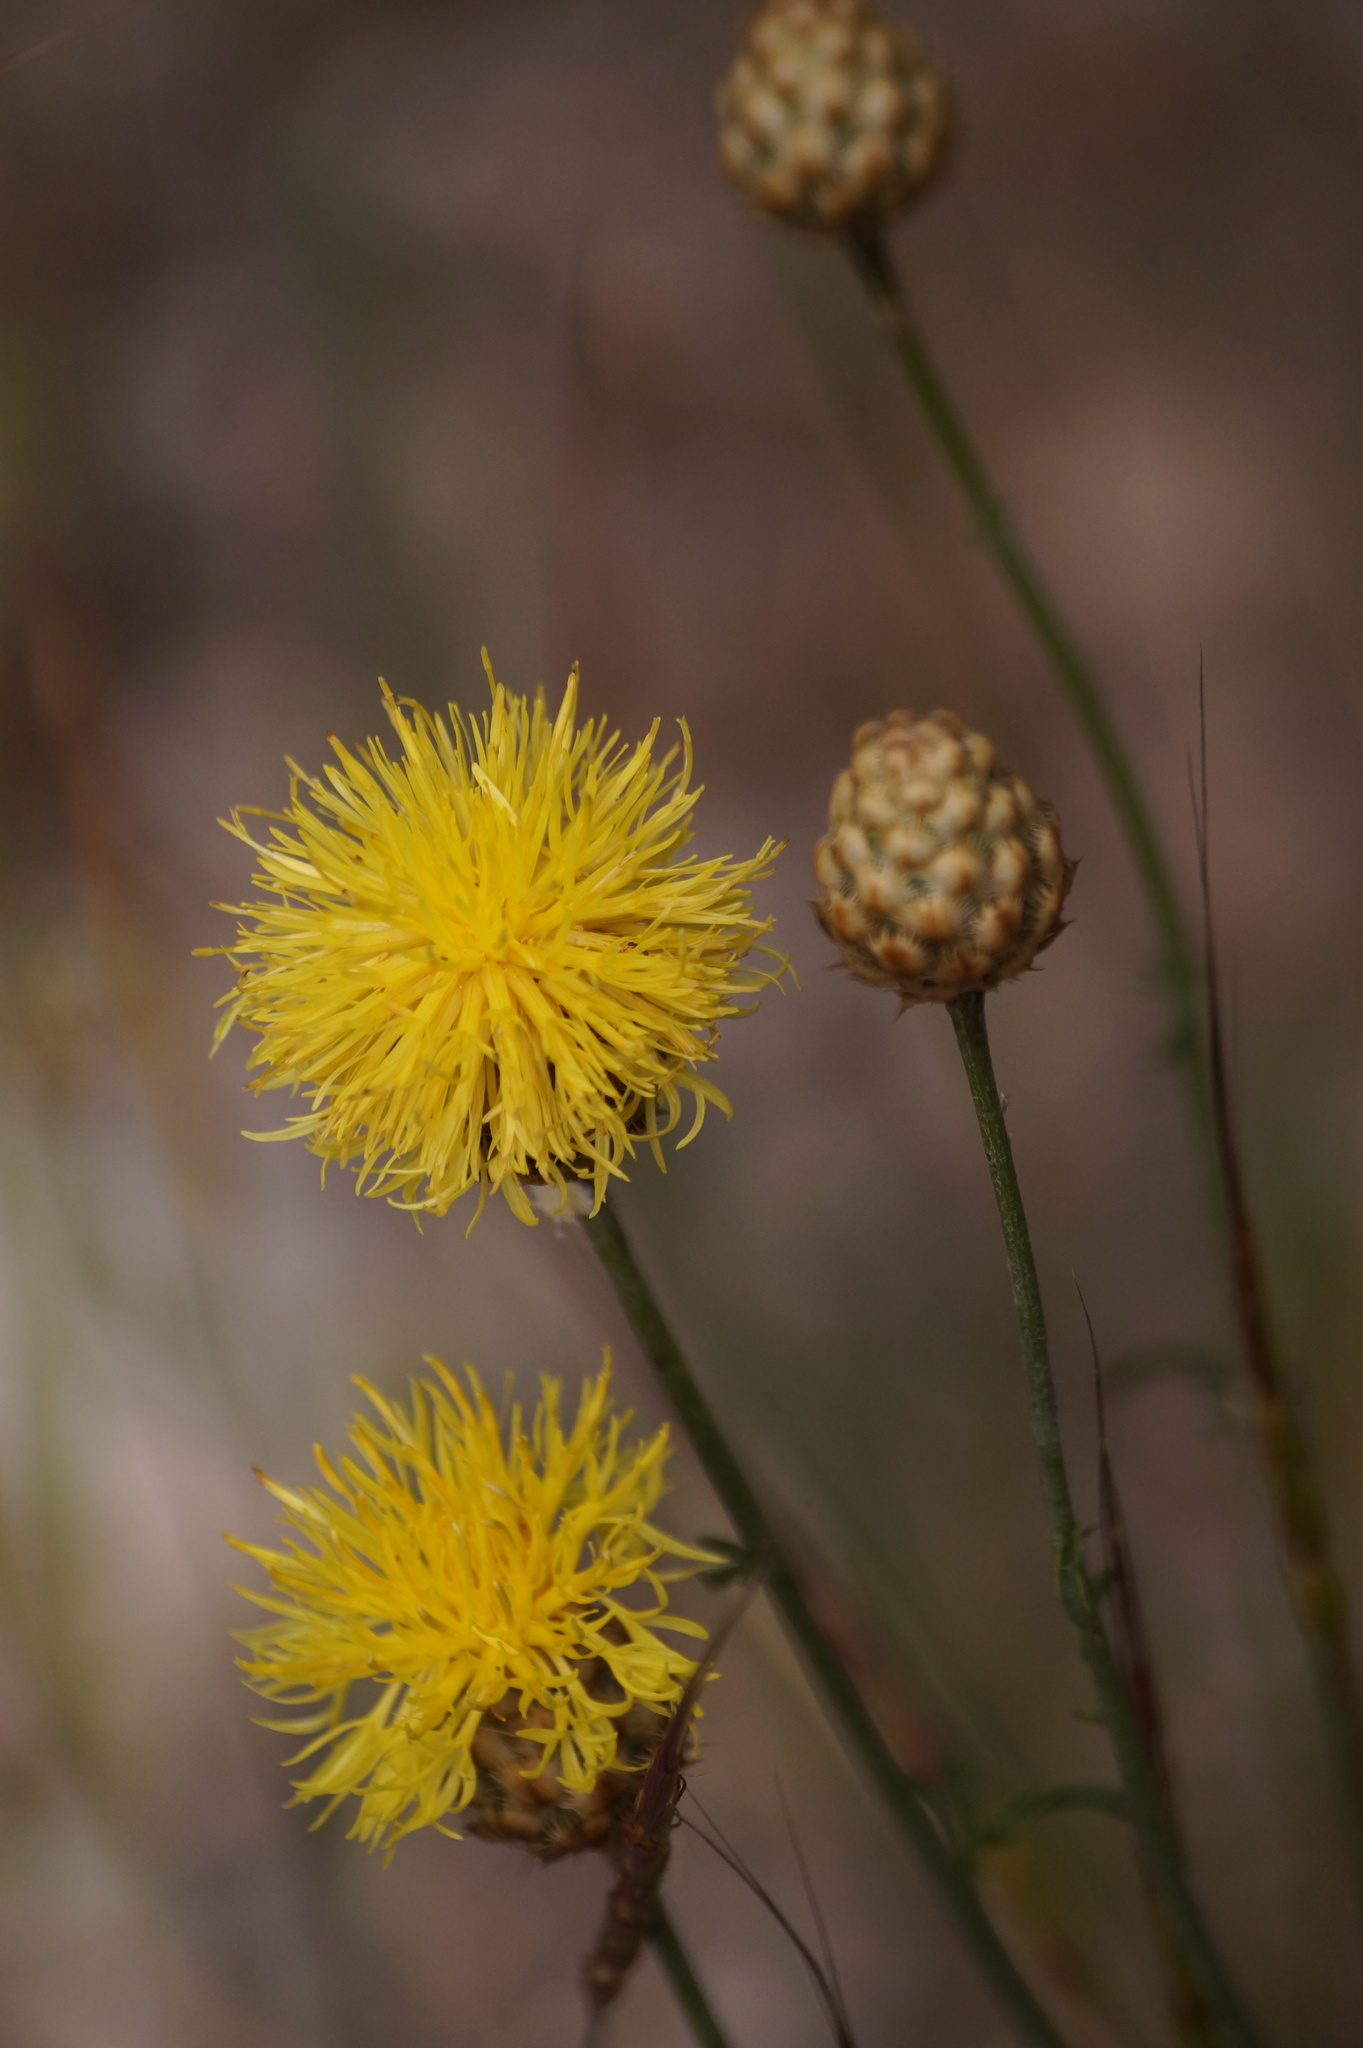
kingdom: Plantae
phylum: Tracheophyta
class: Magnoliopsida
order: Asterales
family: Asteraceae
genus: Centaurea
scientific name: Centaurea orientalis
